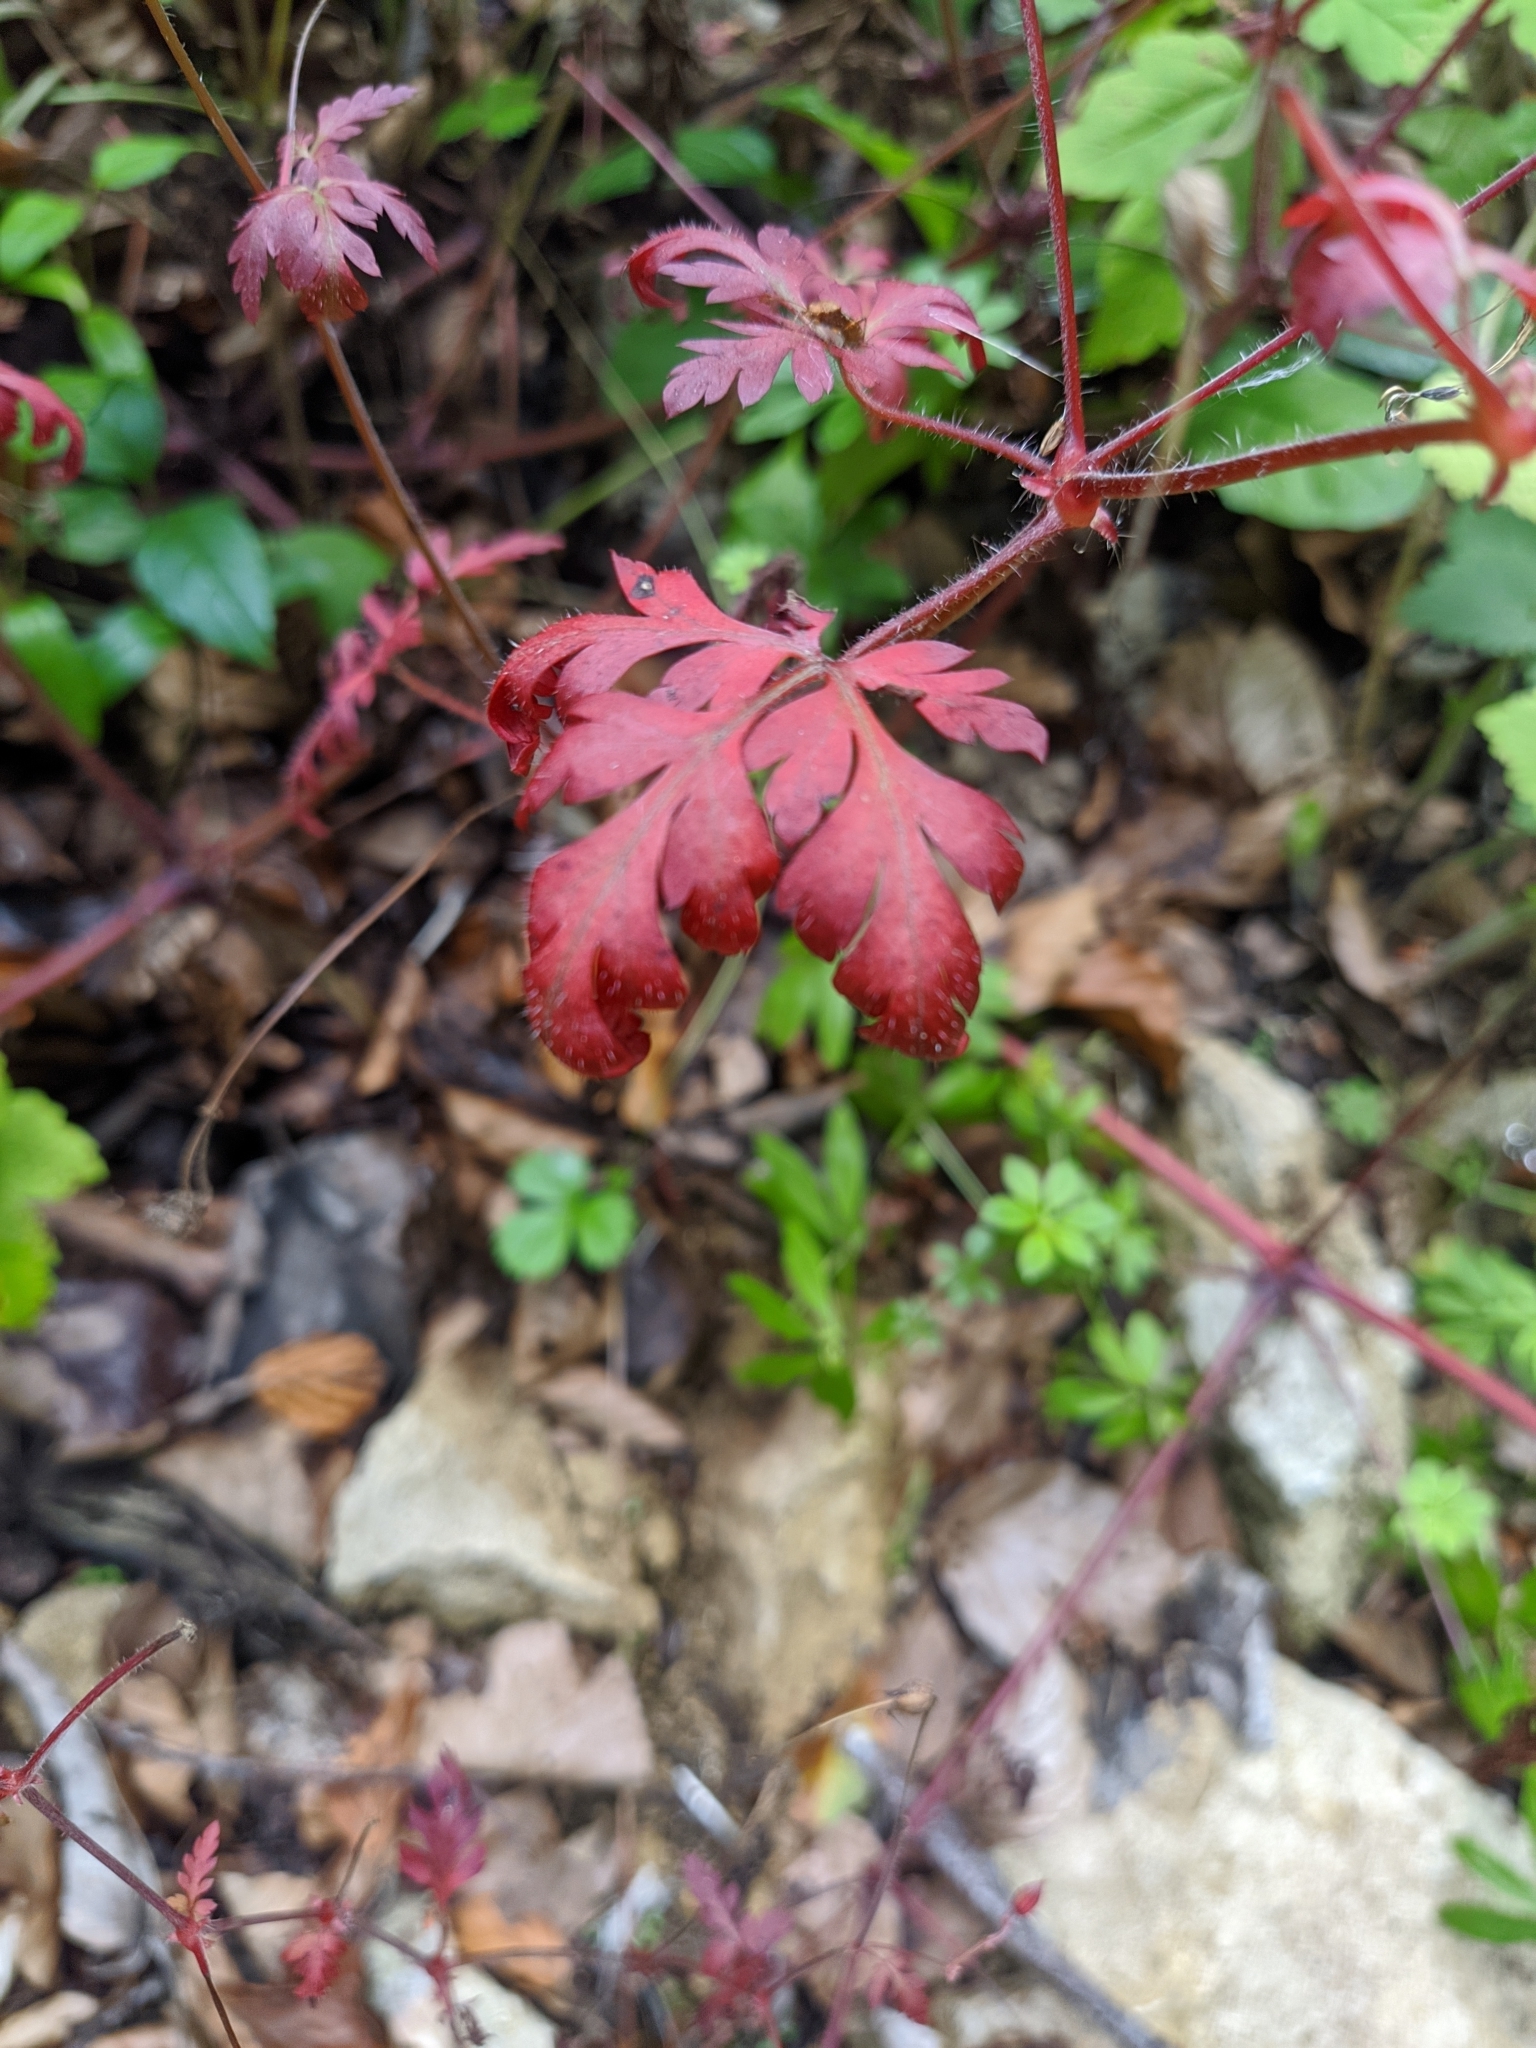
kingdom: Plantae
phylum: Tracheophyta
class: Magnoliopsida
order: Geraniales
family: Geraniaceae
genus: Geranium
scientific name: Geranium robertianum
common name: Herb-robert
